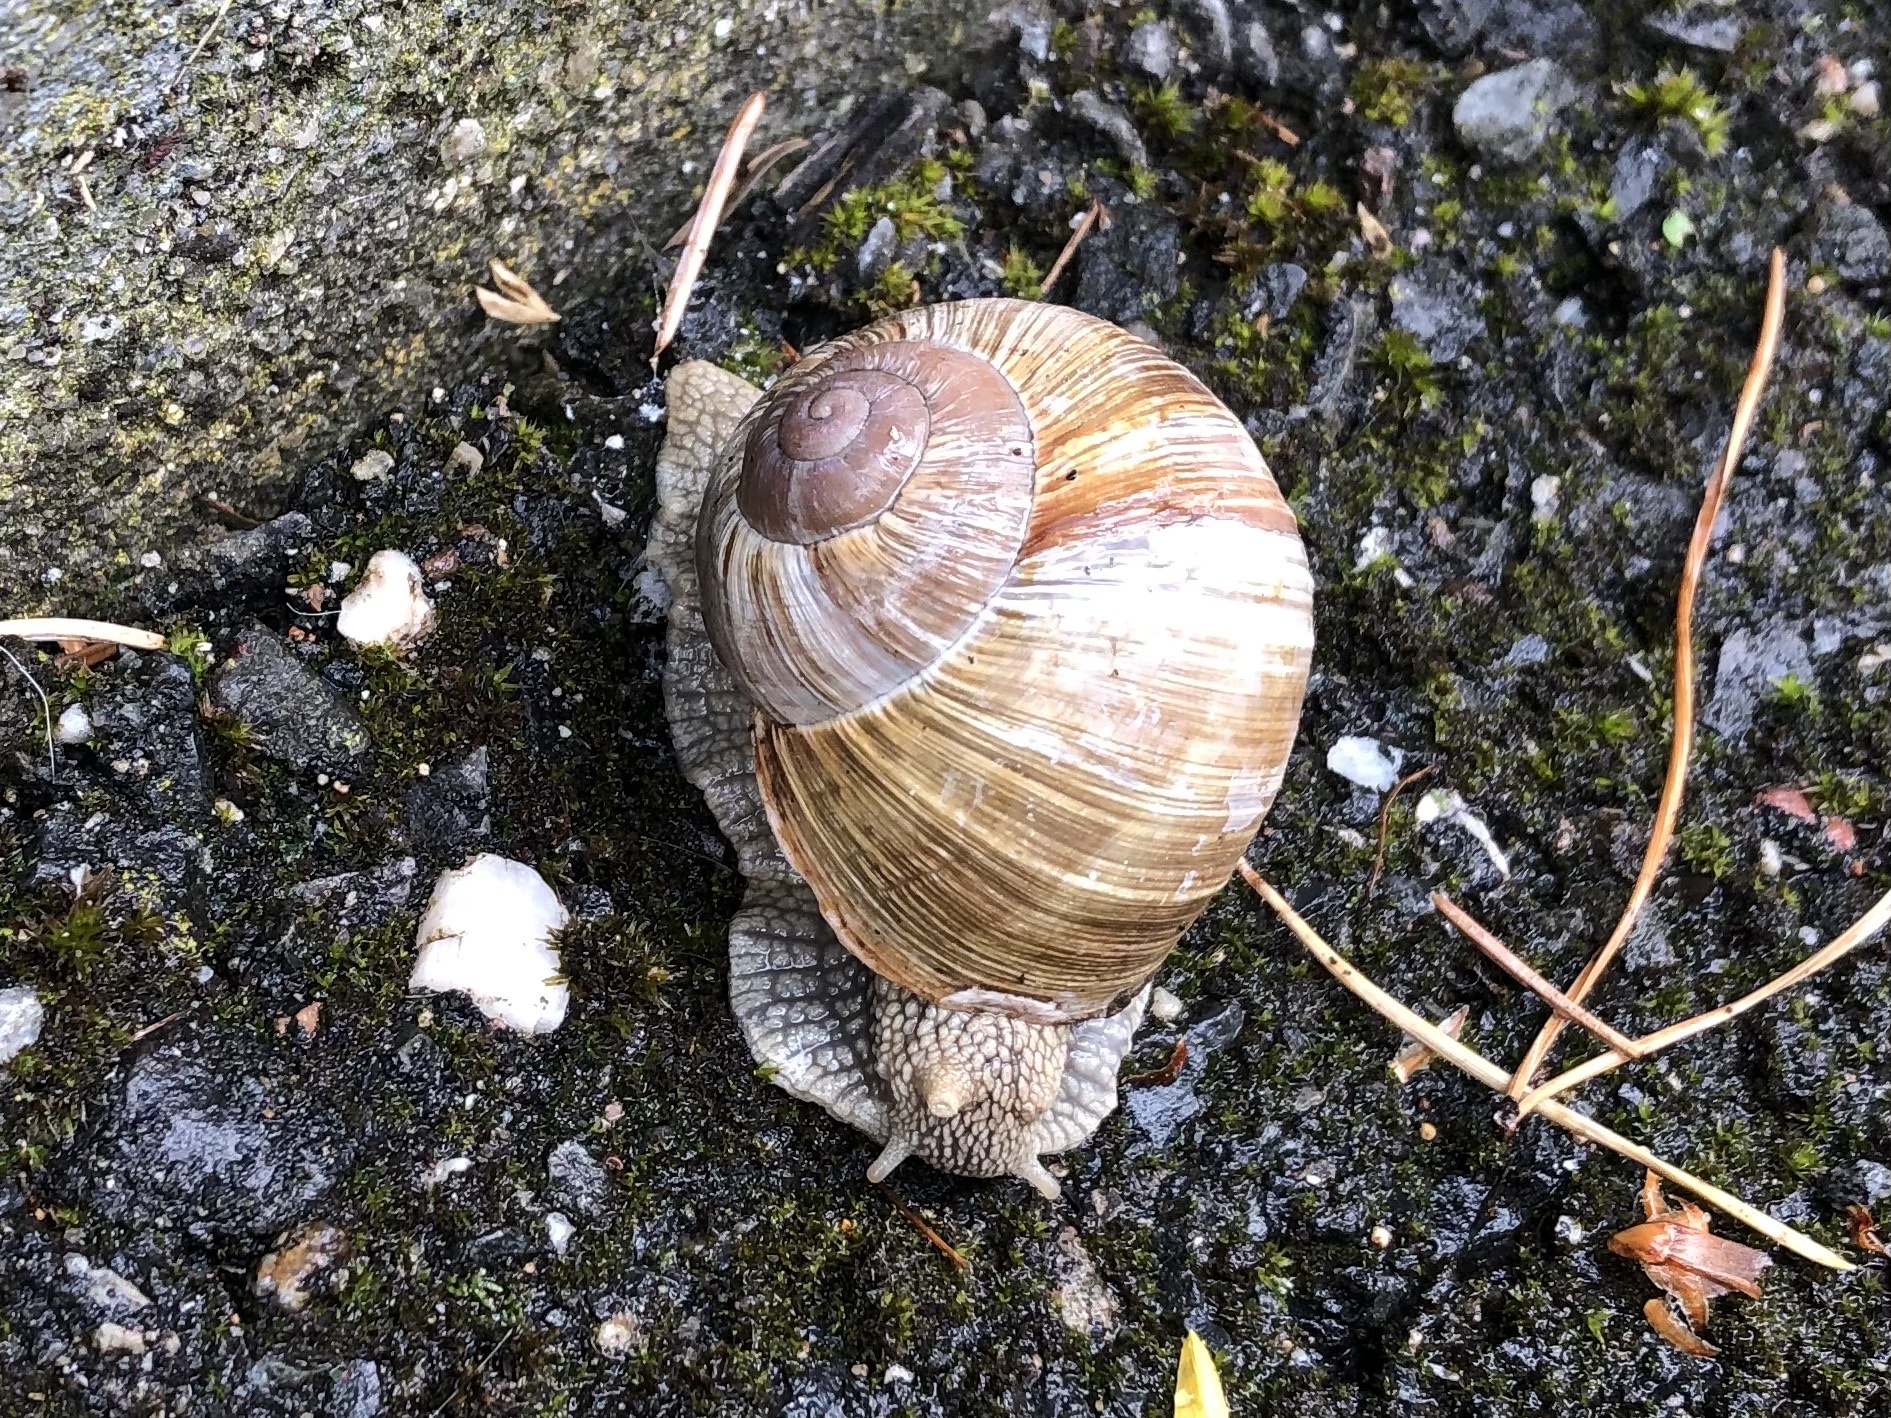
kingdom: Animalia
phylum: Mollusca
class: Gastropoda
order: Stylommatophora
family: Helicidae
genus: Helix
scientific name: Helix pomatia
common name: Roman snail
